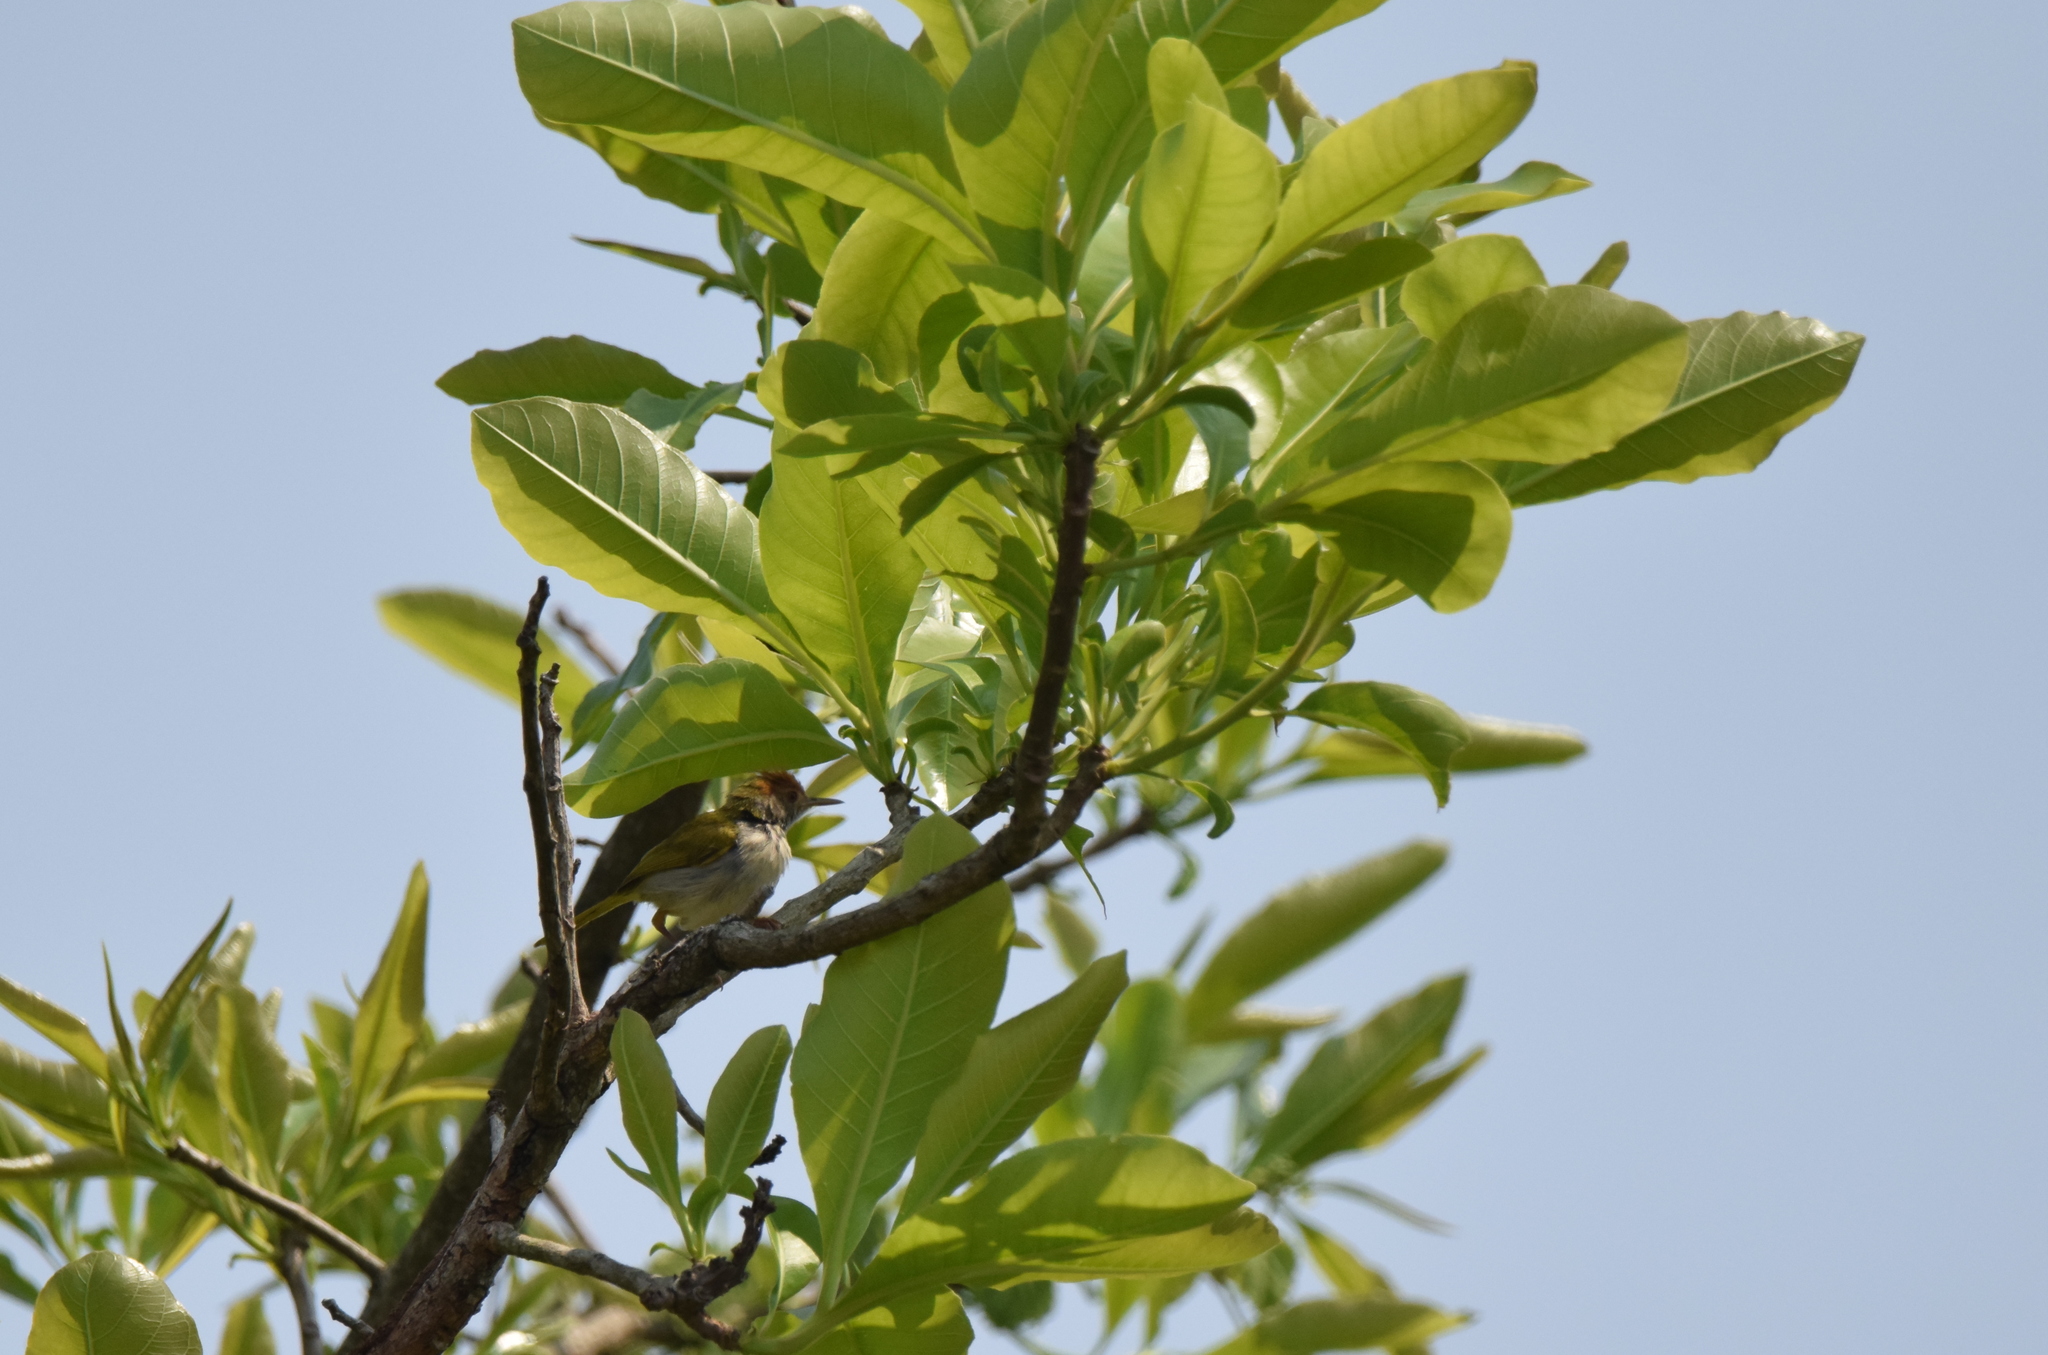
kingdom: Animalia
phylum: Chordata
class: Aves
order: Passeriformes
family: Cisticolidae
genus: Orthotomus
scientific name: Orthotomus atrogularis
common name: Dark-necked tailorbird
